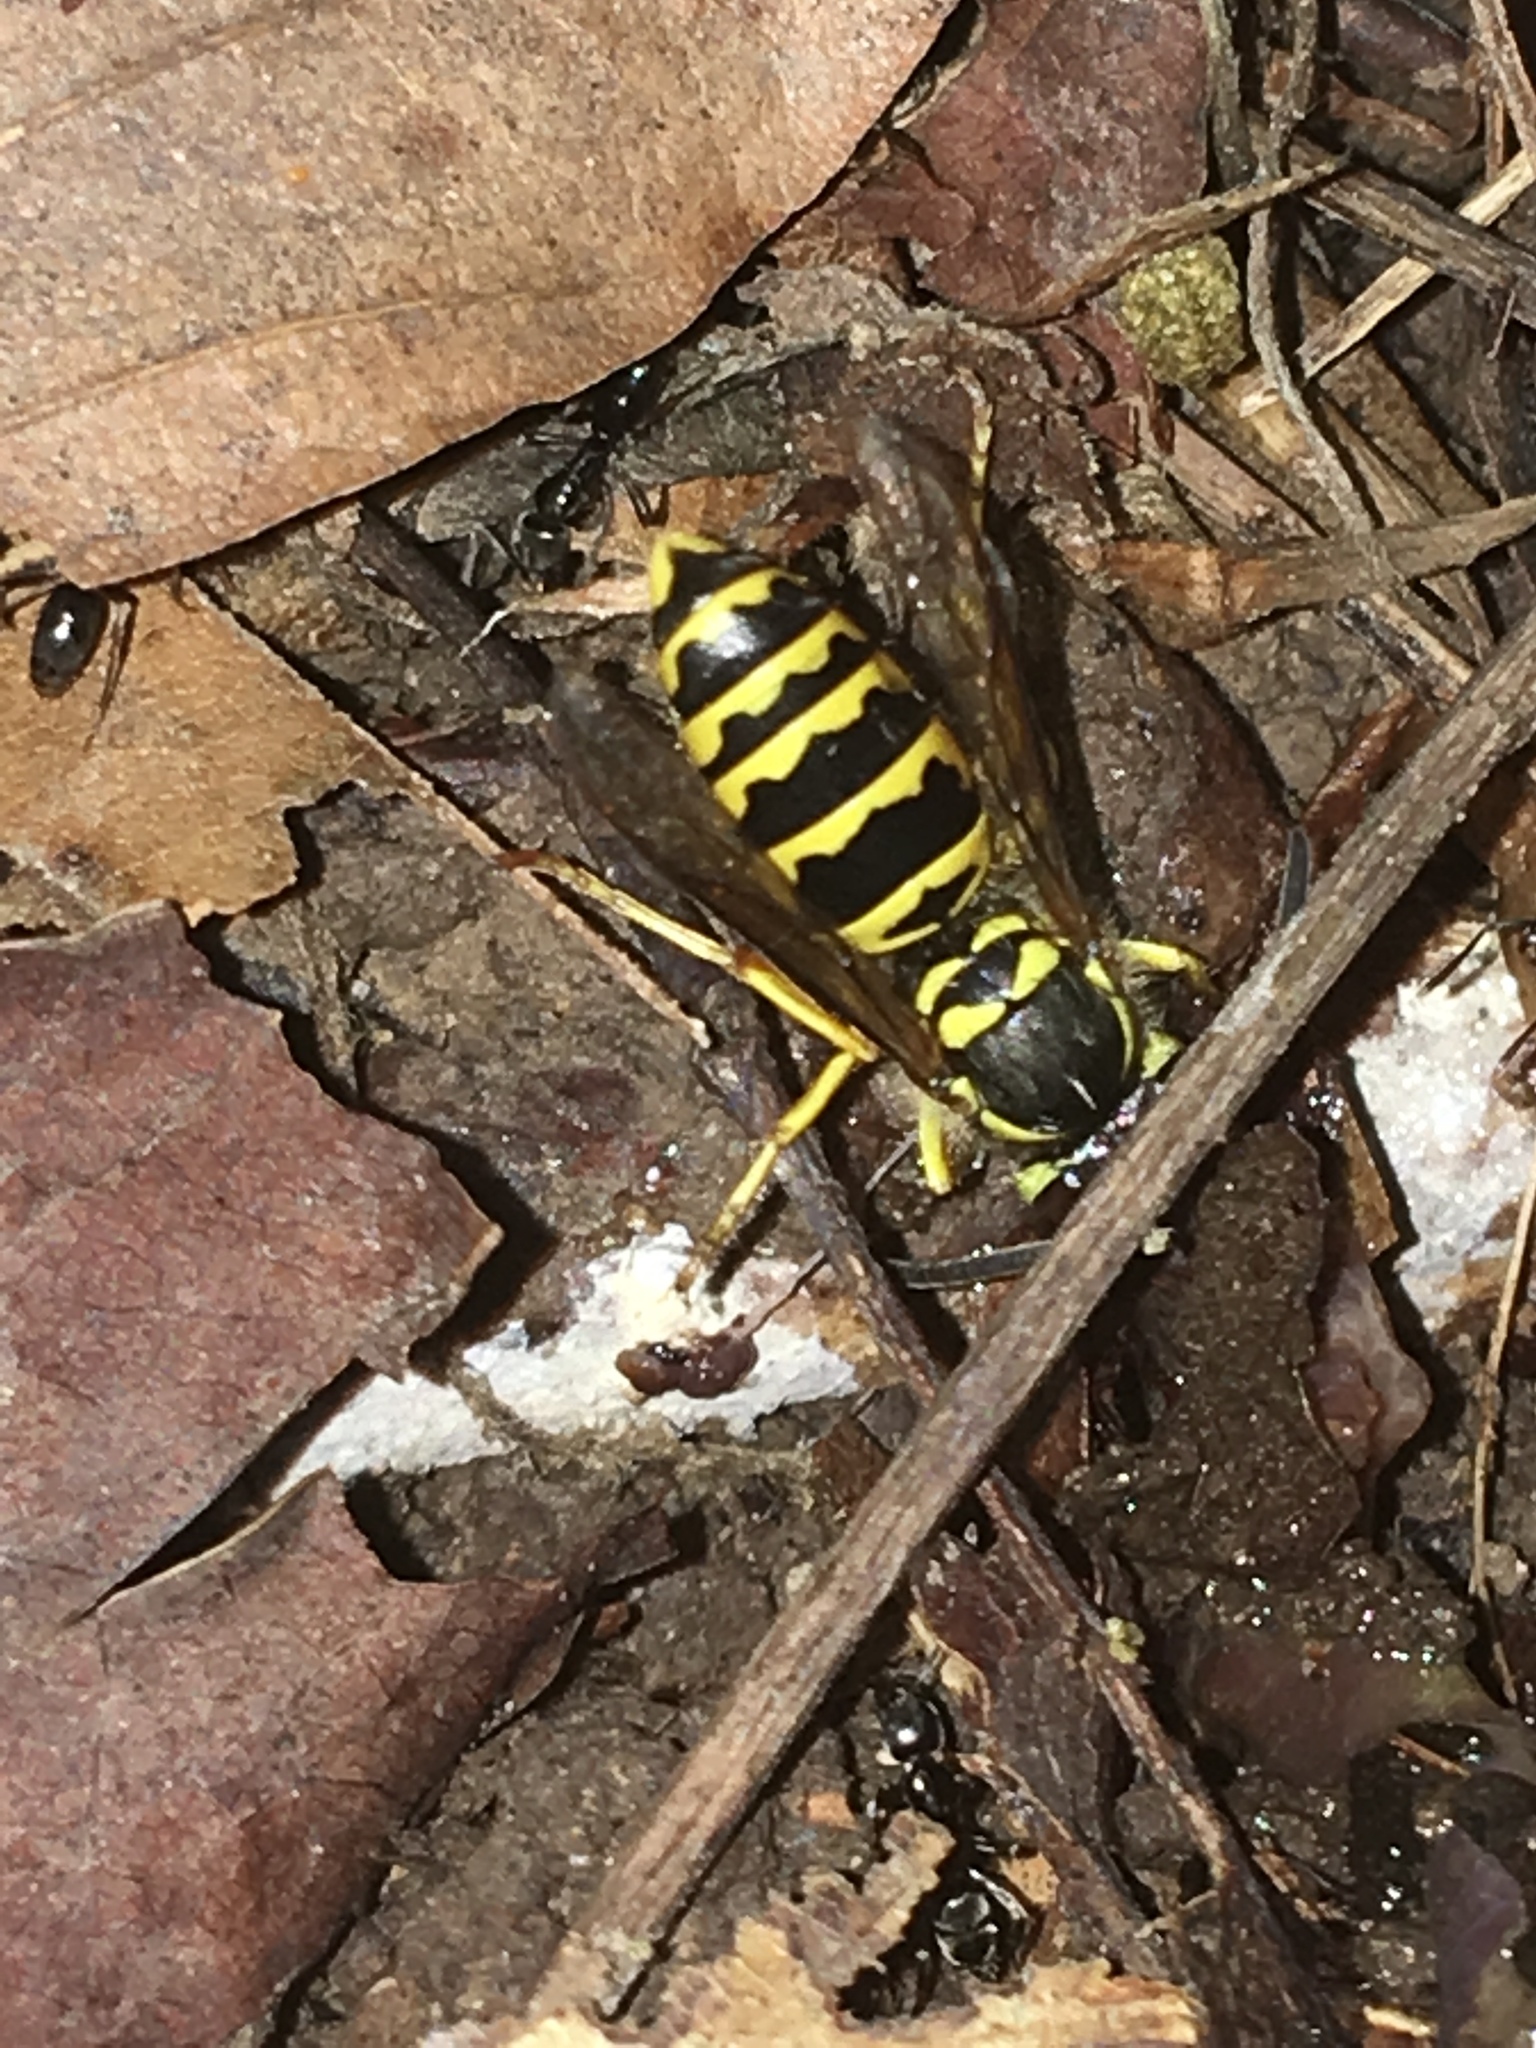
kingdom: Animalia
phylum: Arthropoda
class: Insecta
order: Hymenoptera
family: Vespidae
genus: Vespula
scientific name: Vespula maculifrons
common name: Eastern yellowjacket
